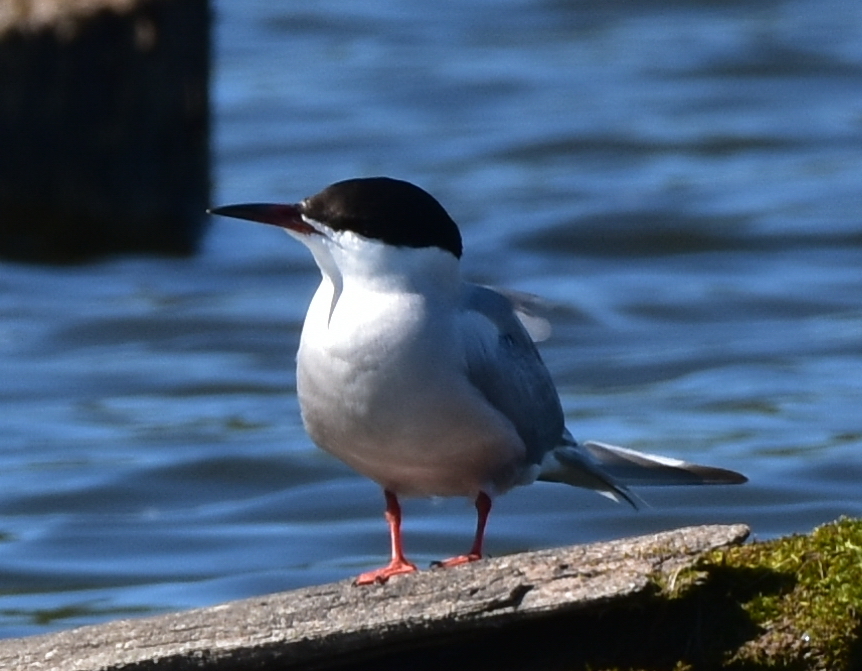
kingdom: Animalia
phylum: Chordata
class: Aves
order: Charadriiformes
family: Laridae
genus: Sterna
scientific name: Sterna hirundo
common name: Common tern
